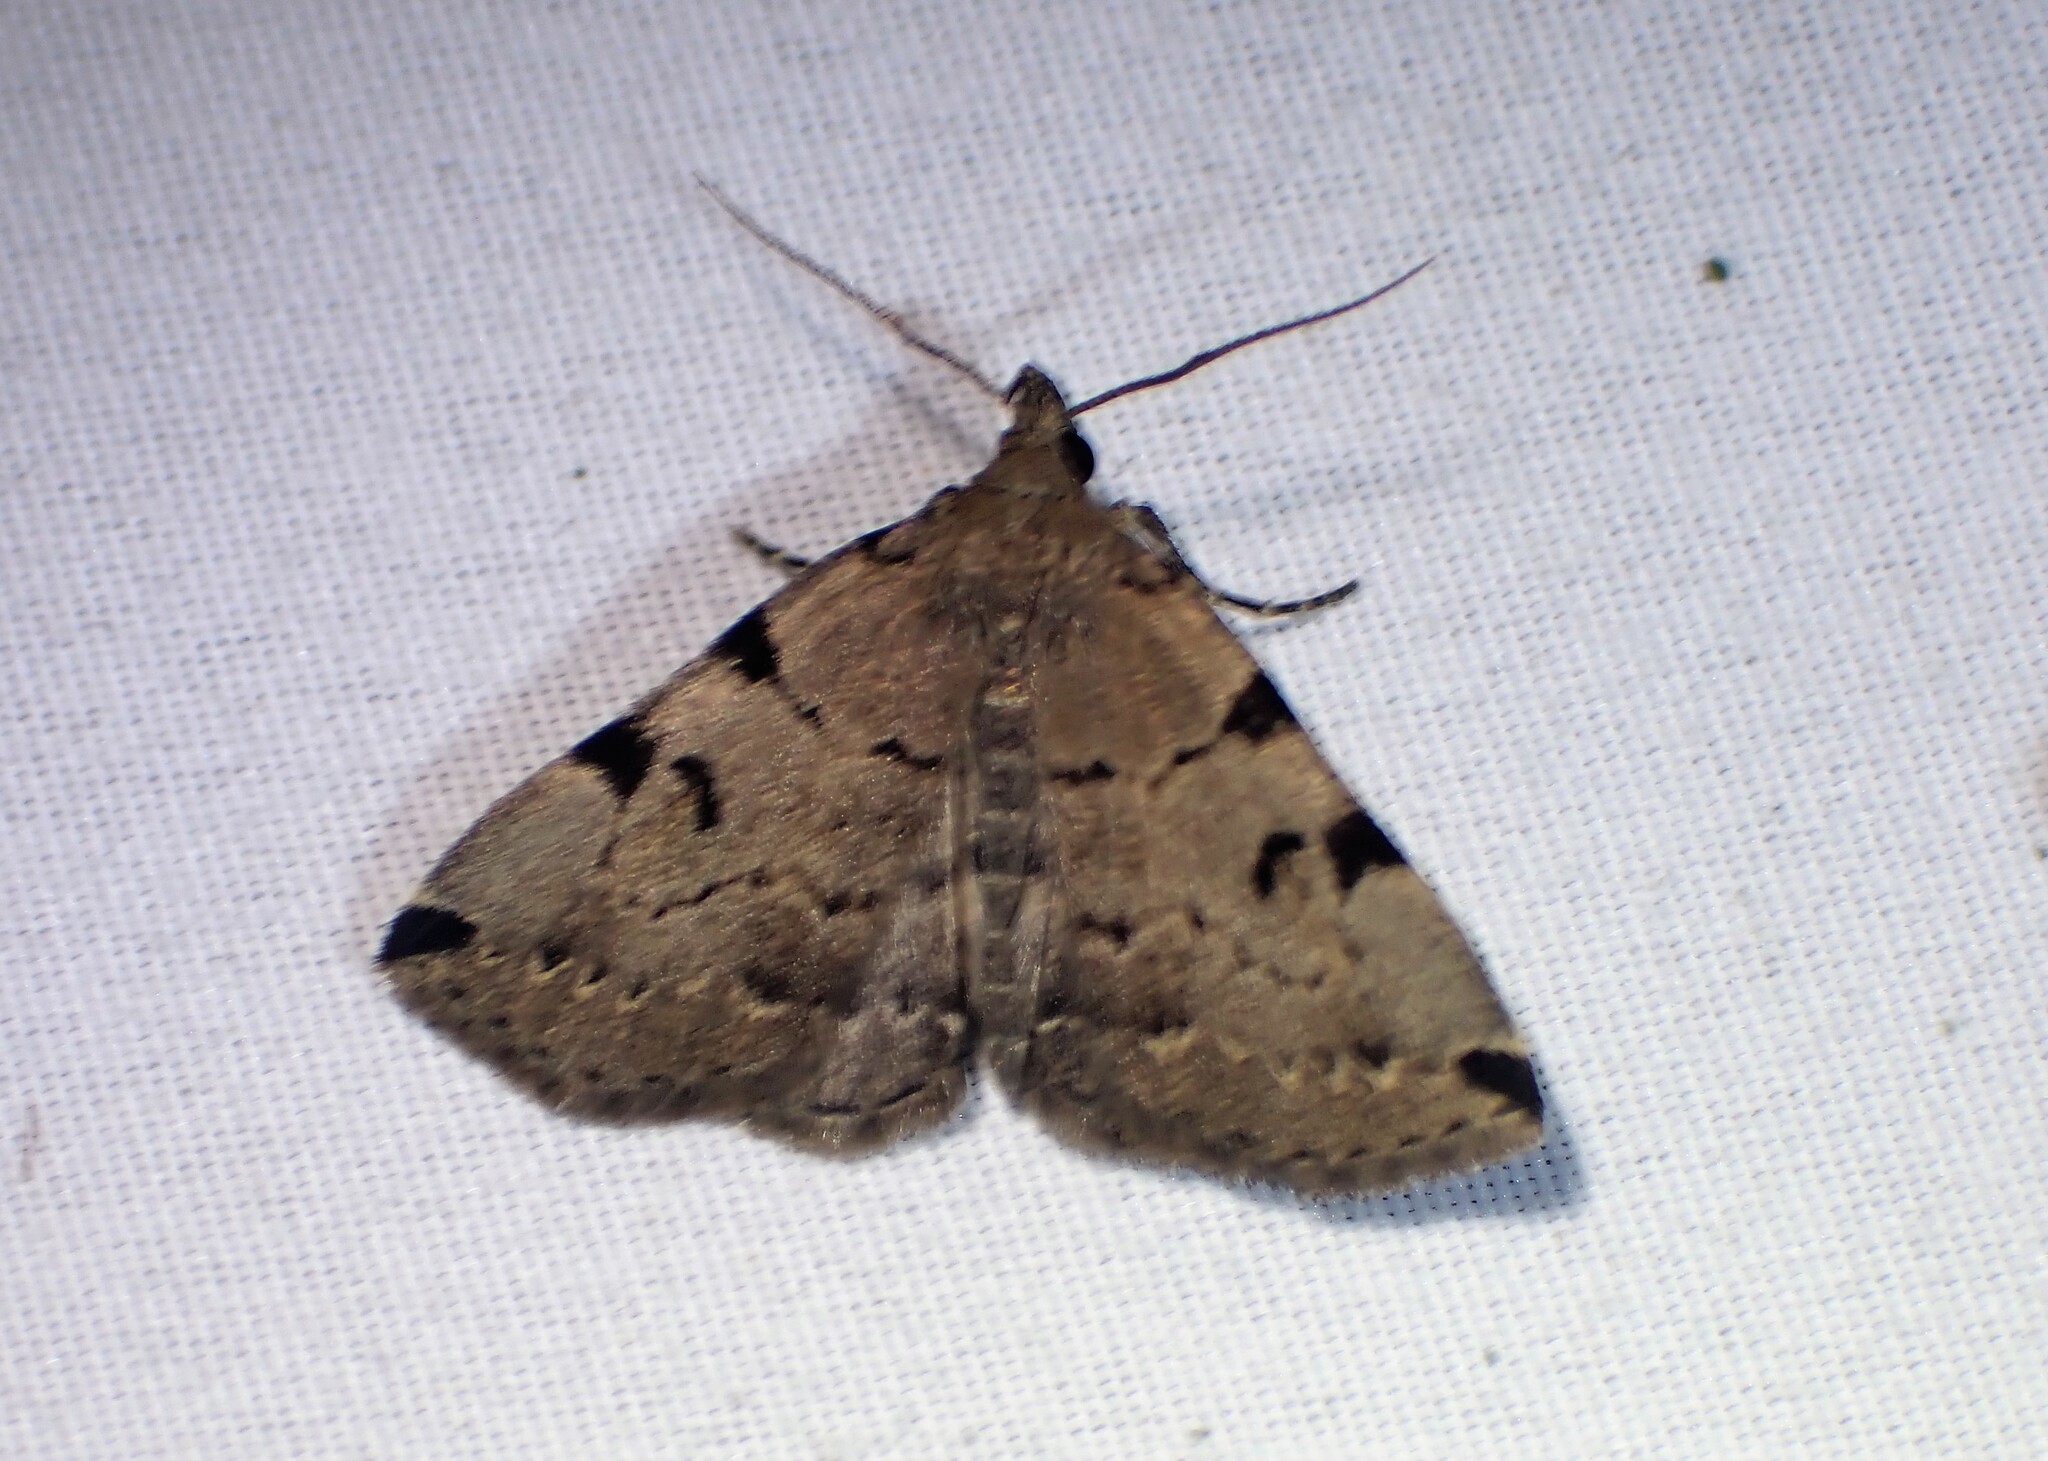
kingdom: Animalia
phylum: Arthropoda
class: Insecta
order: Lepidoptera
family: Erebidae
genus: Zanclognatha
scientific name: Zanclognatha lituralis
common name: Lettered fan-foot
